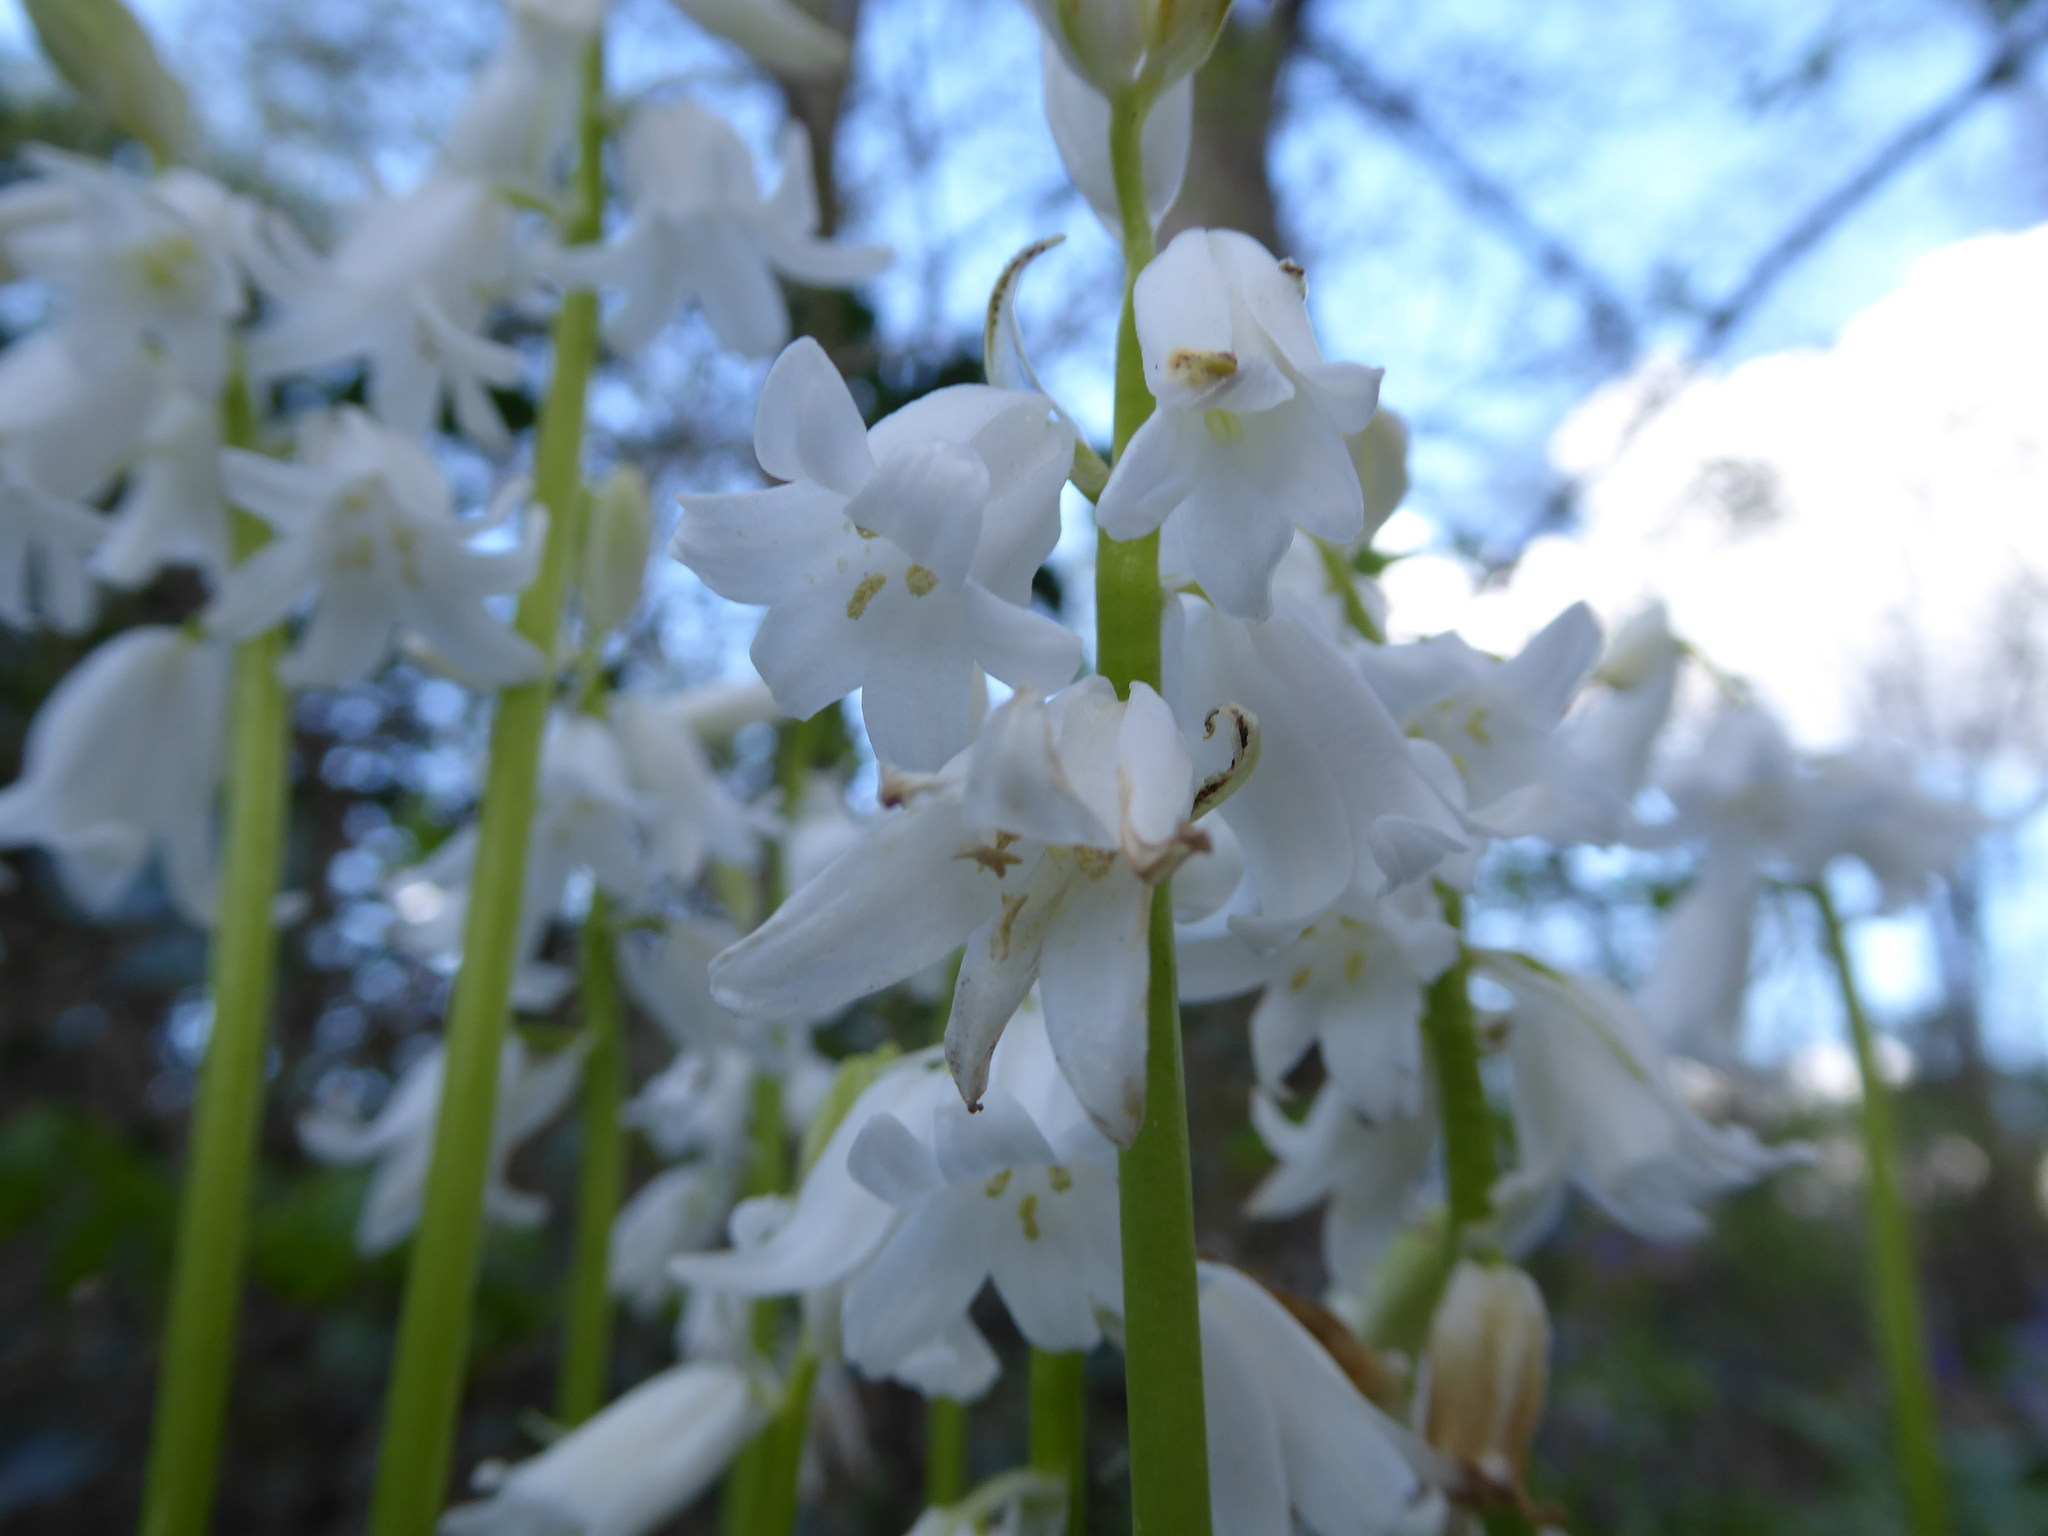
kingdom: Plantae
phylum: Tracheophyta
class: Liliopsida
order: Asparagales
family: Asparagaceae
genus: Hyacinthoides
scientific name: Hyacinthoides massartiana
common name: Hyacinthoides
